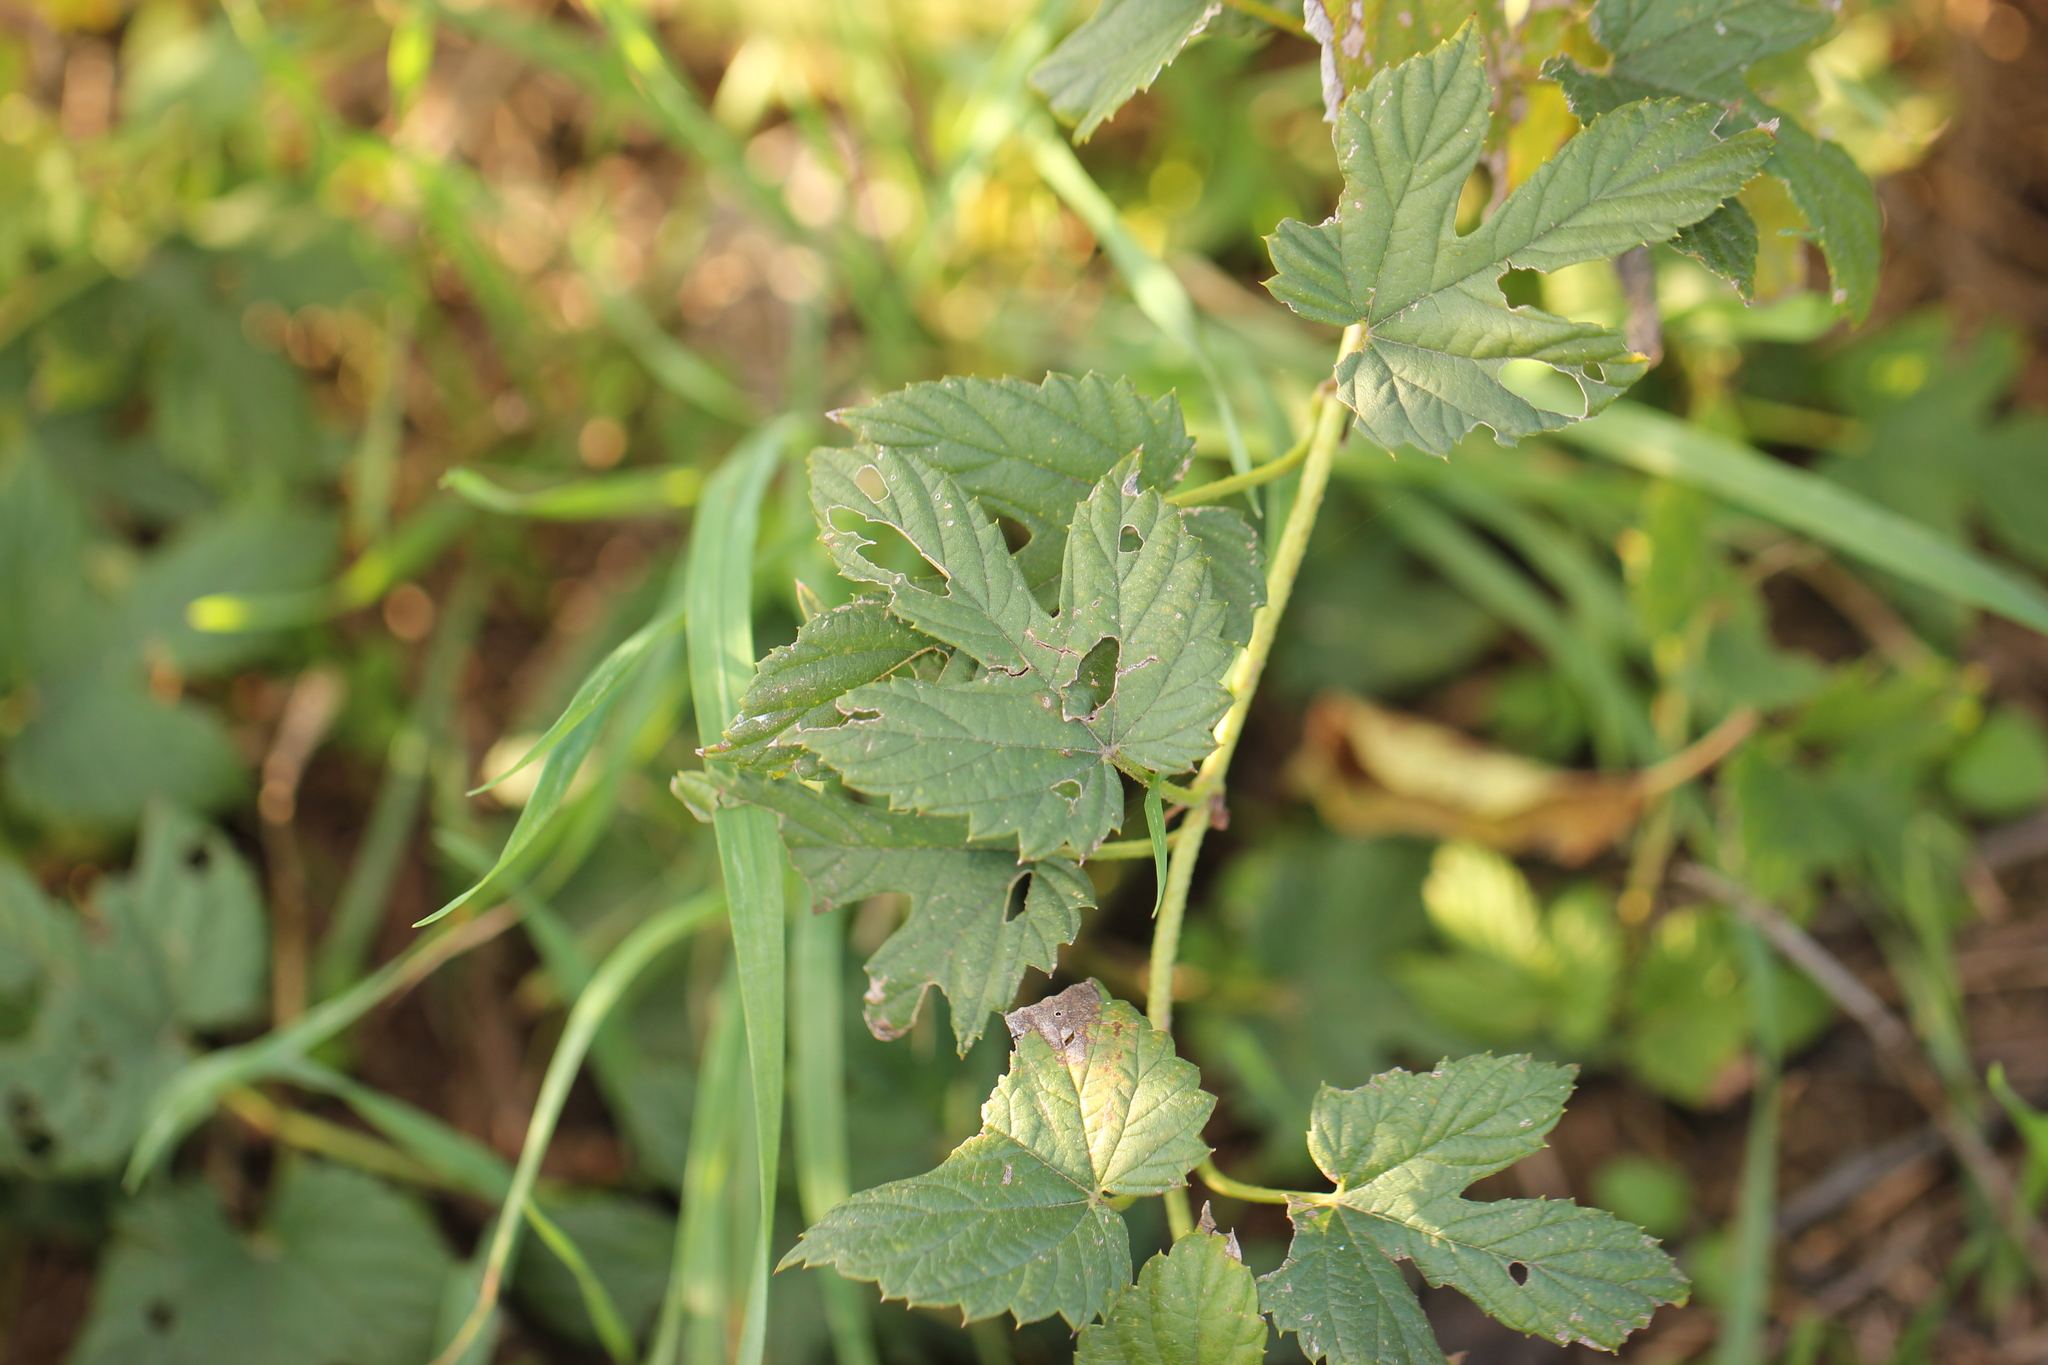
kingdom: Plantae
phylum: Tracheophyta
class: Magnoliopsida
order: Rosales
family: Cannabaceae
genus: Humulus
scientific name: Humulus lupulus
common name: Hop
